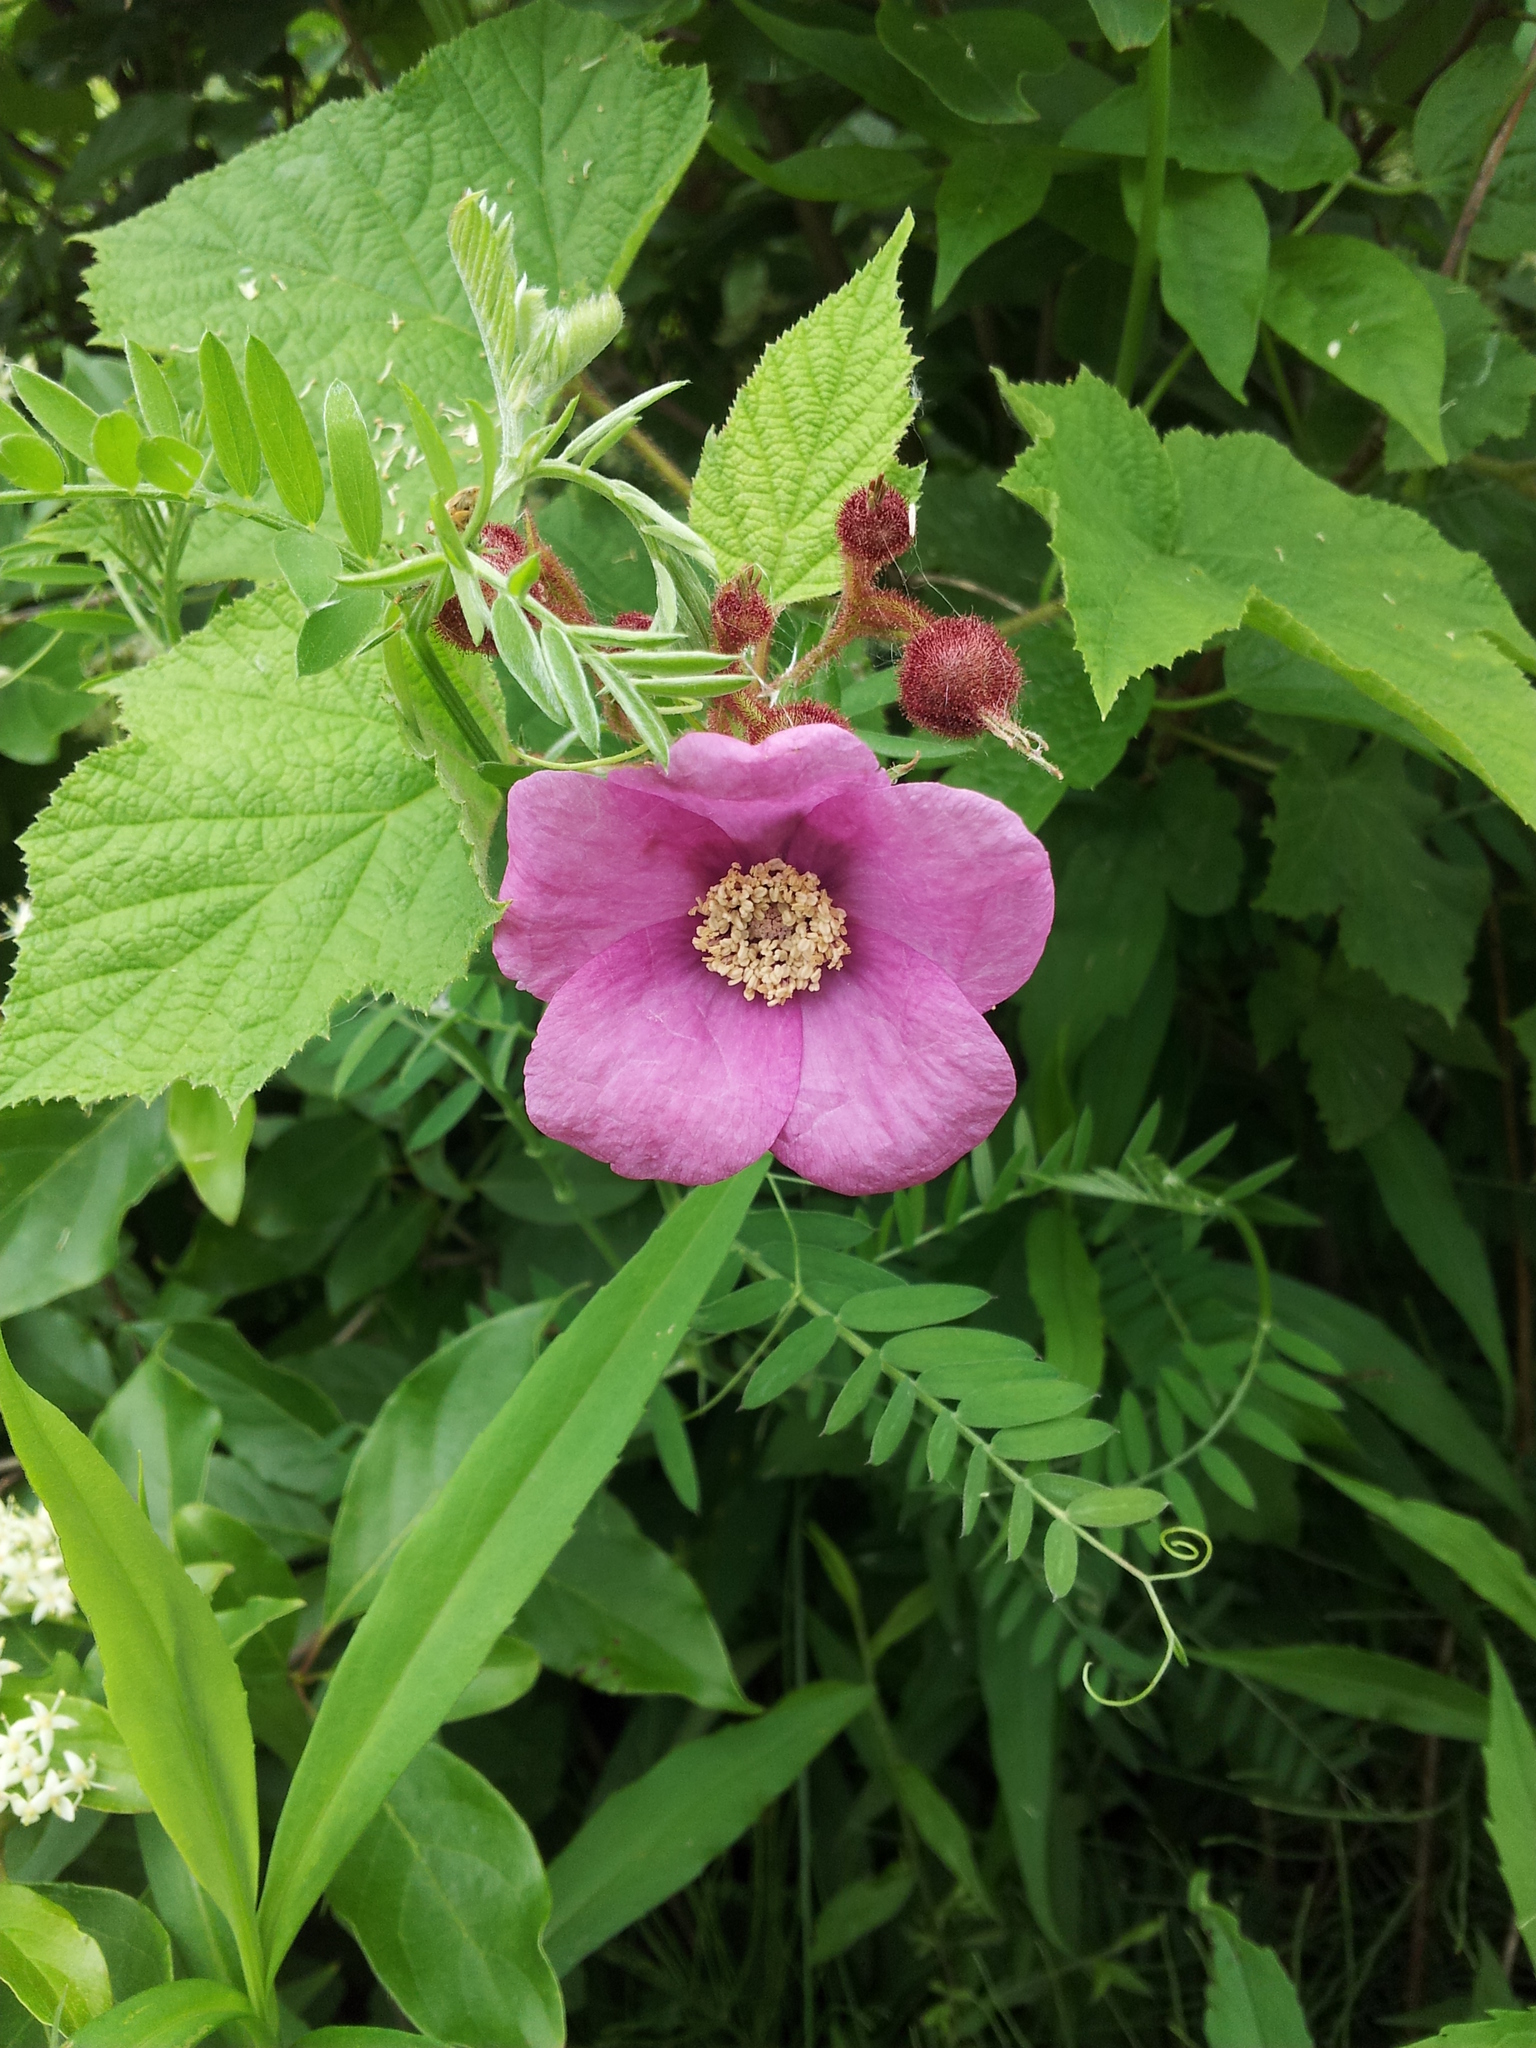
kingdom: Plantae
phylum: Tracheophyta
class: Magnoliopsida
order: Rosales
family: Rosaceae
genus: Rubus
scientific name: Rubus odoratus
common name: Purple-flowered raspberry
